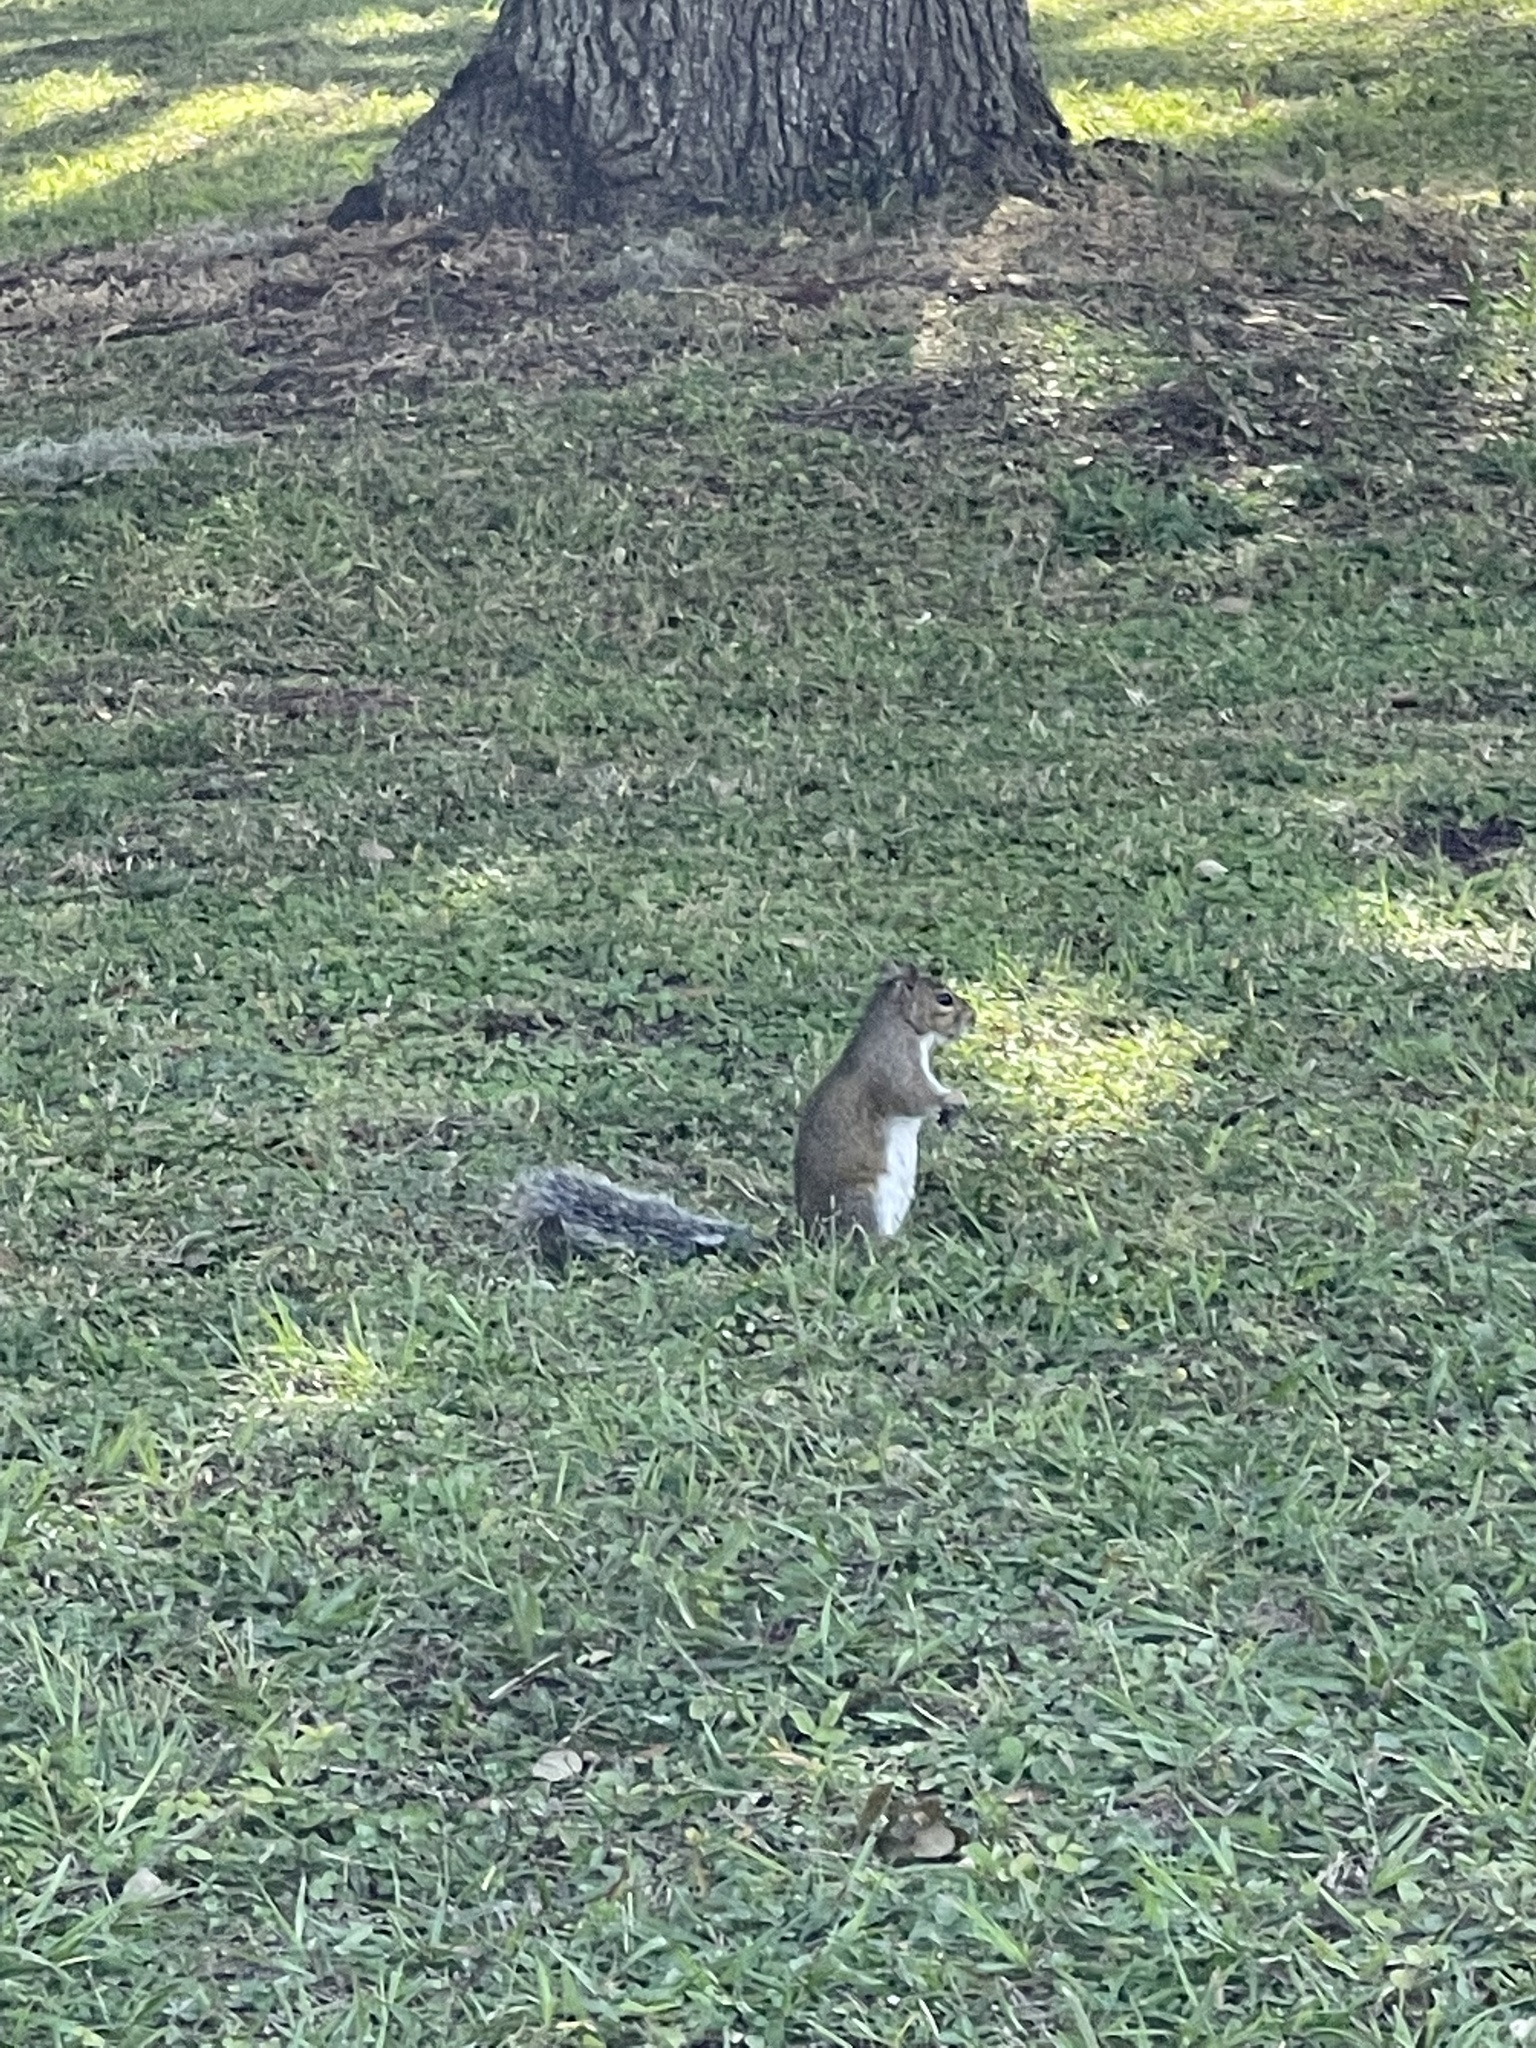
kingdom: Animalia
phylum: Chordata
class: Mammalia
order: Rodentia
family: Sciuridae
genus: Sciurus
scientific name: Sciurus carolinensis
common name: Eastern gray squirrel
